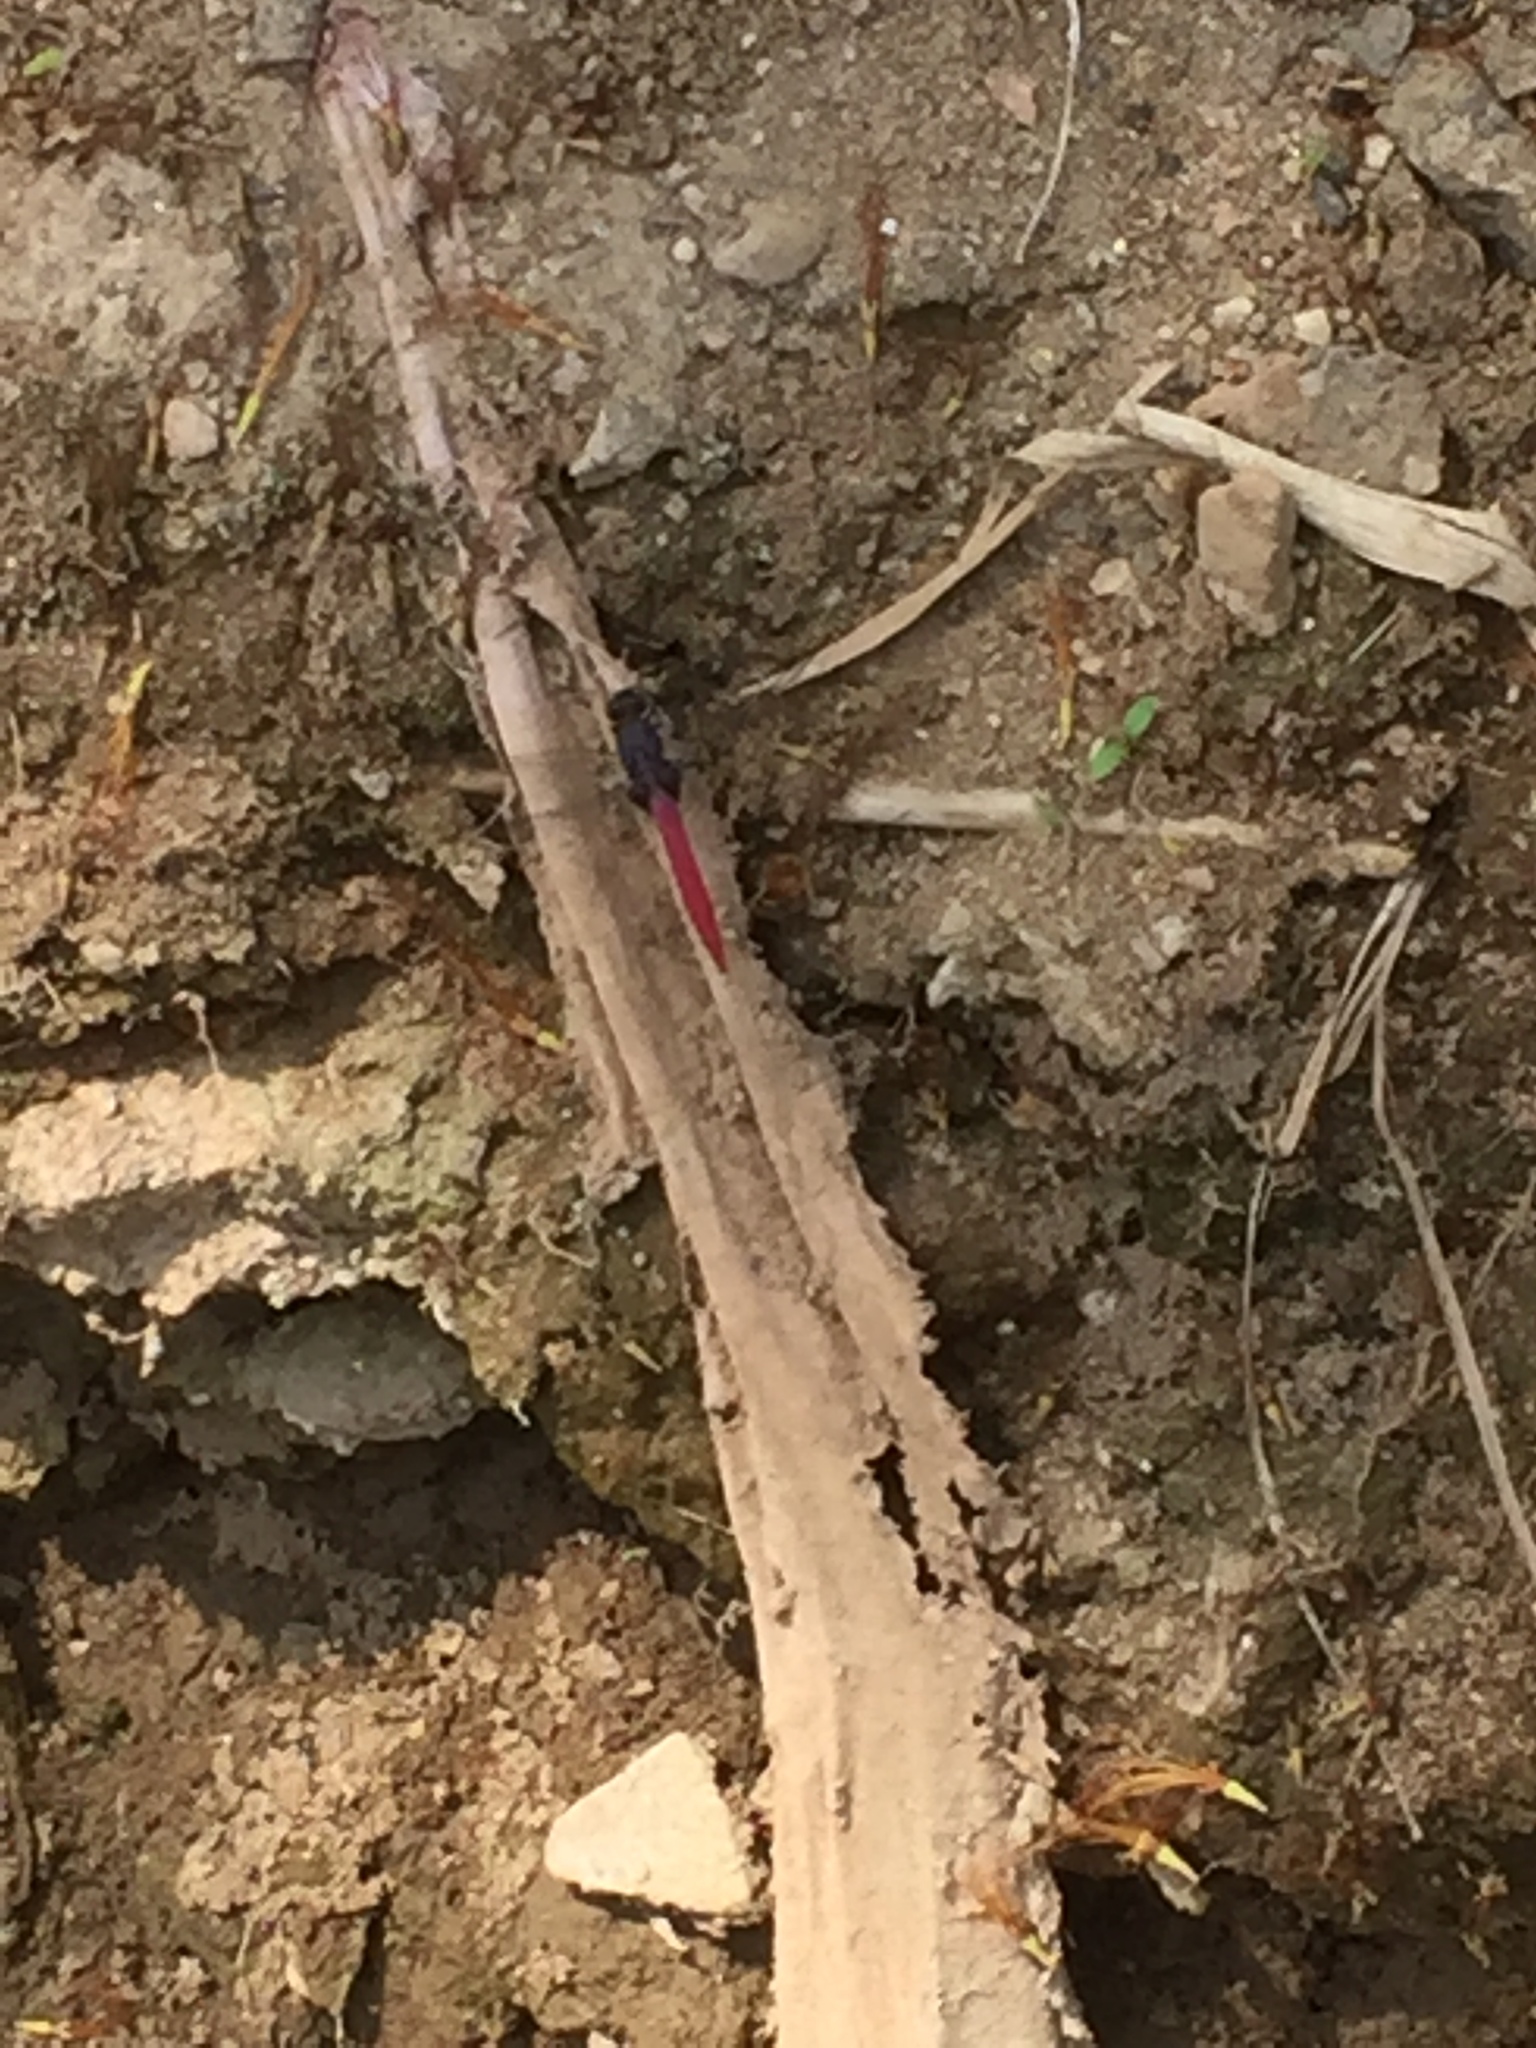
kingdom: Animalia
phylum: Arthropoda
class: Insecta
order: Odonata
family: Libellulidae
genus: Orthetrum
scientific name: Orthetrum pruinosum
